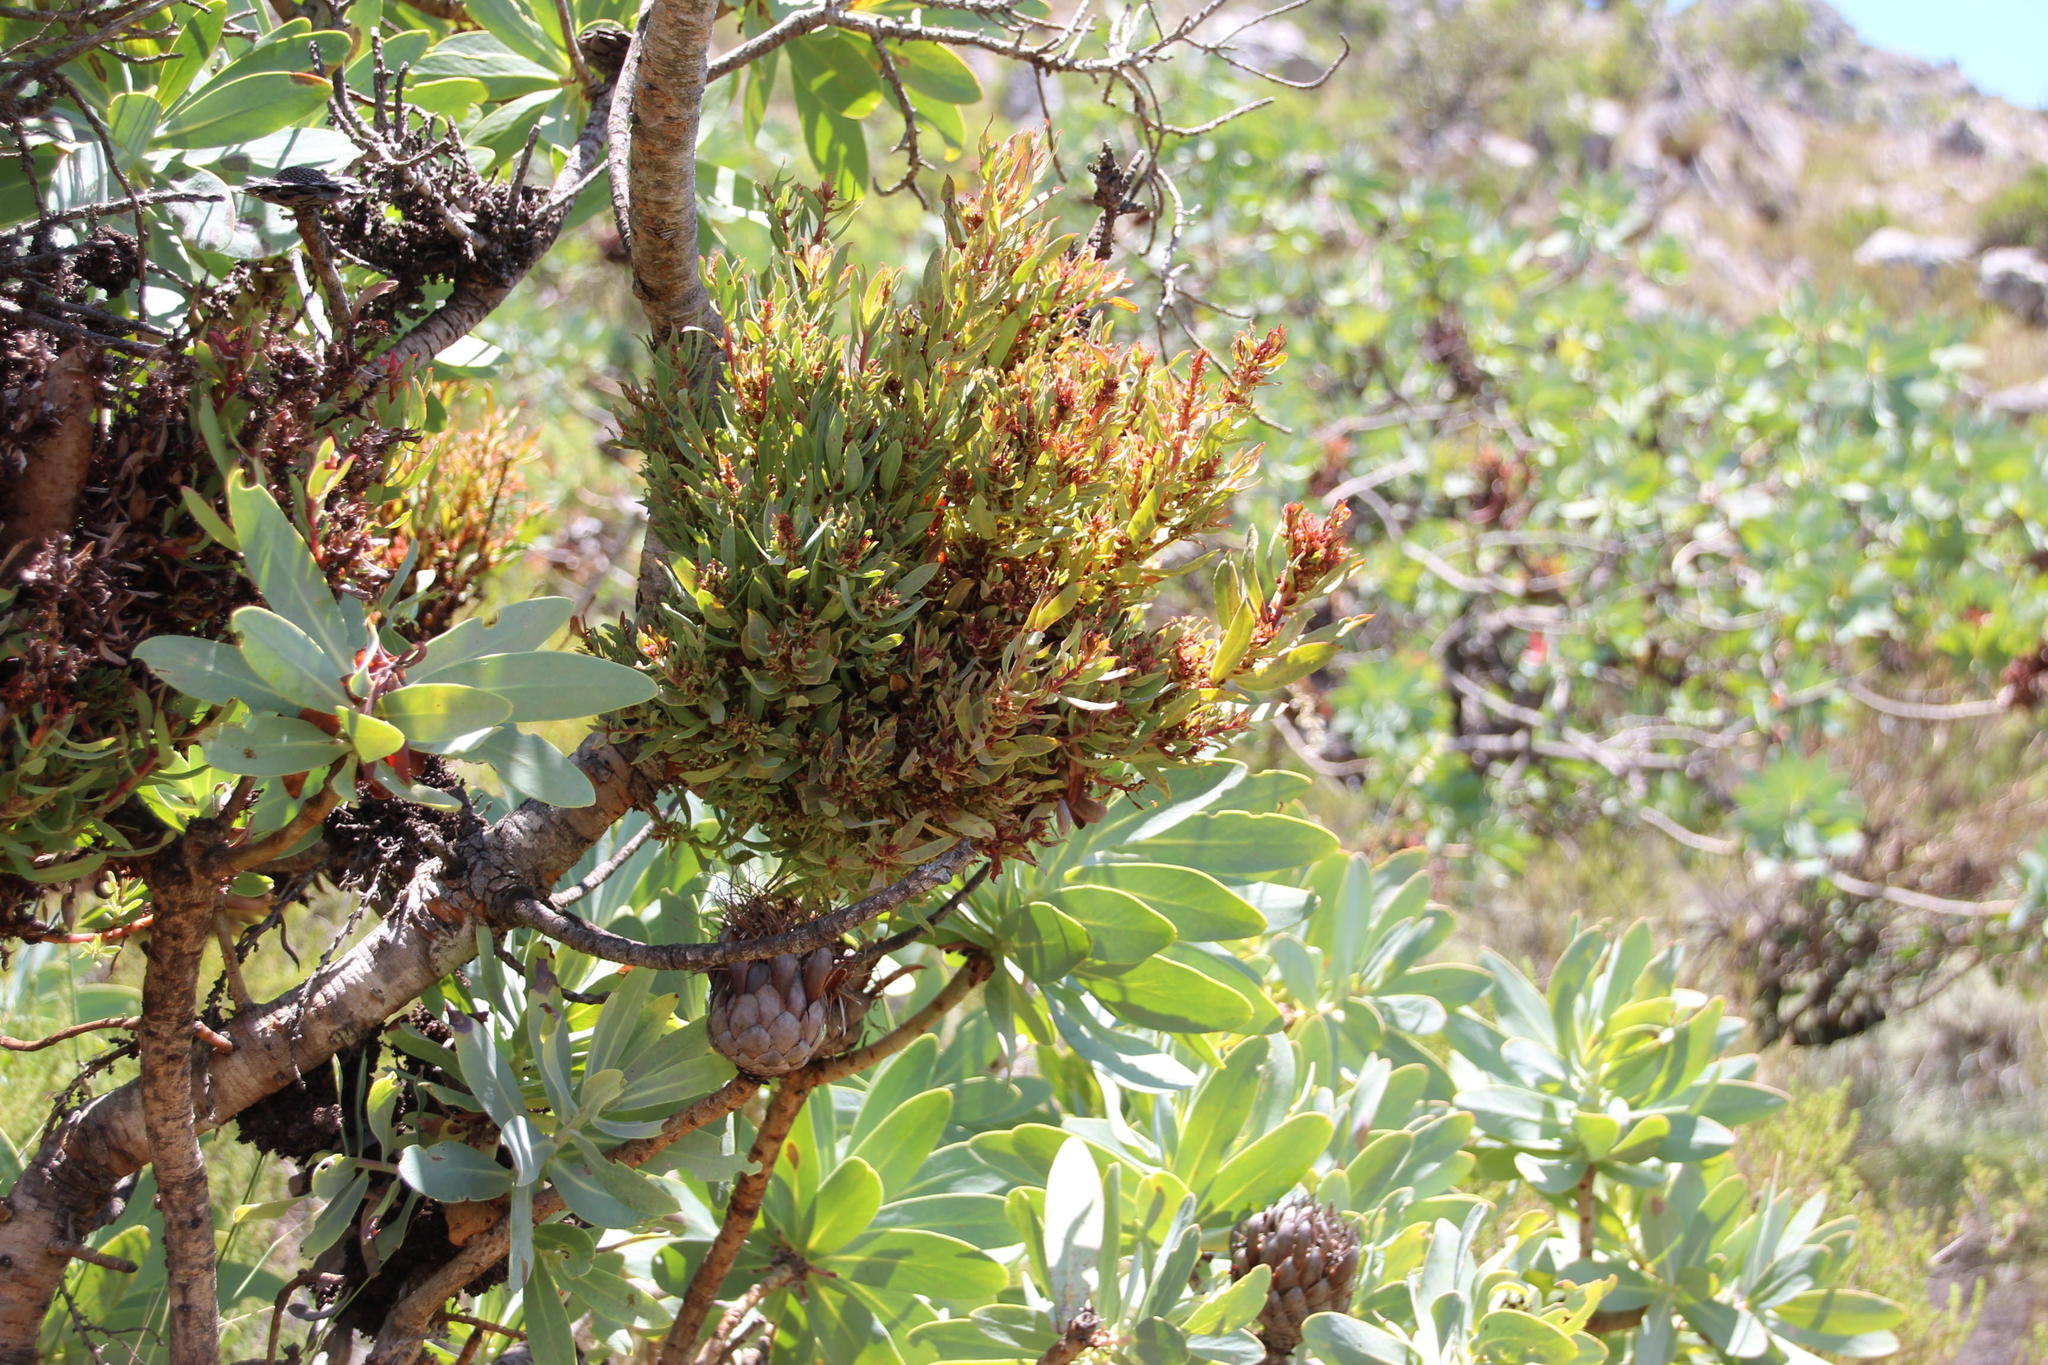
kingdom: Bacteria
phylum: Firmicutes
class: Bacilli
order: Acholeplasmatales
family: Acholeplasmataceae
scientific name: Acholeplasmataceae
